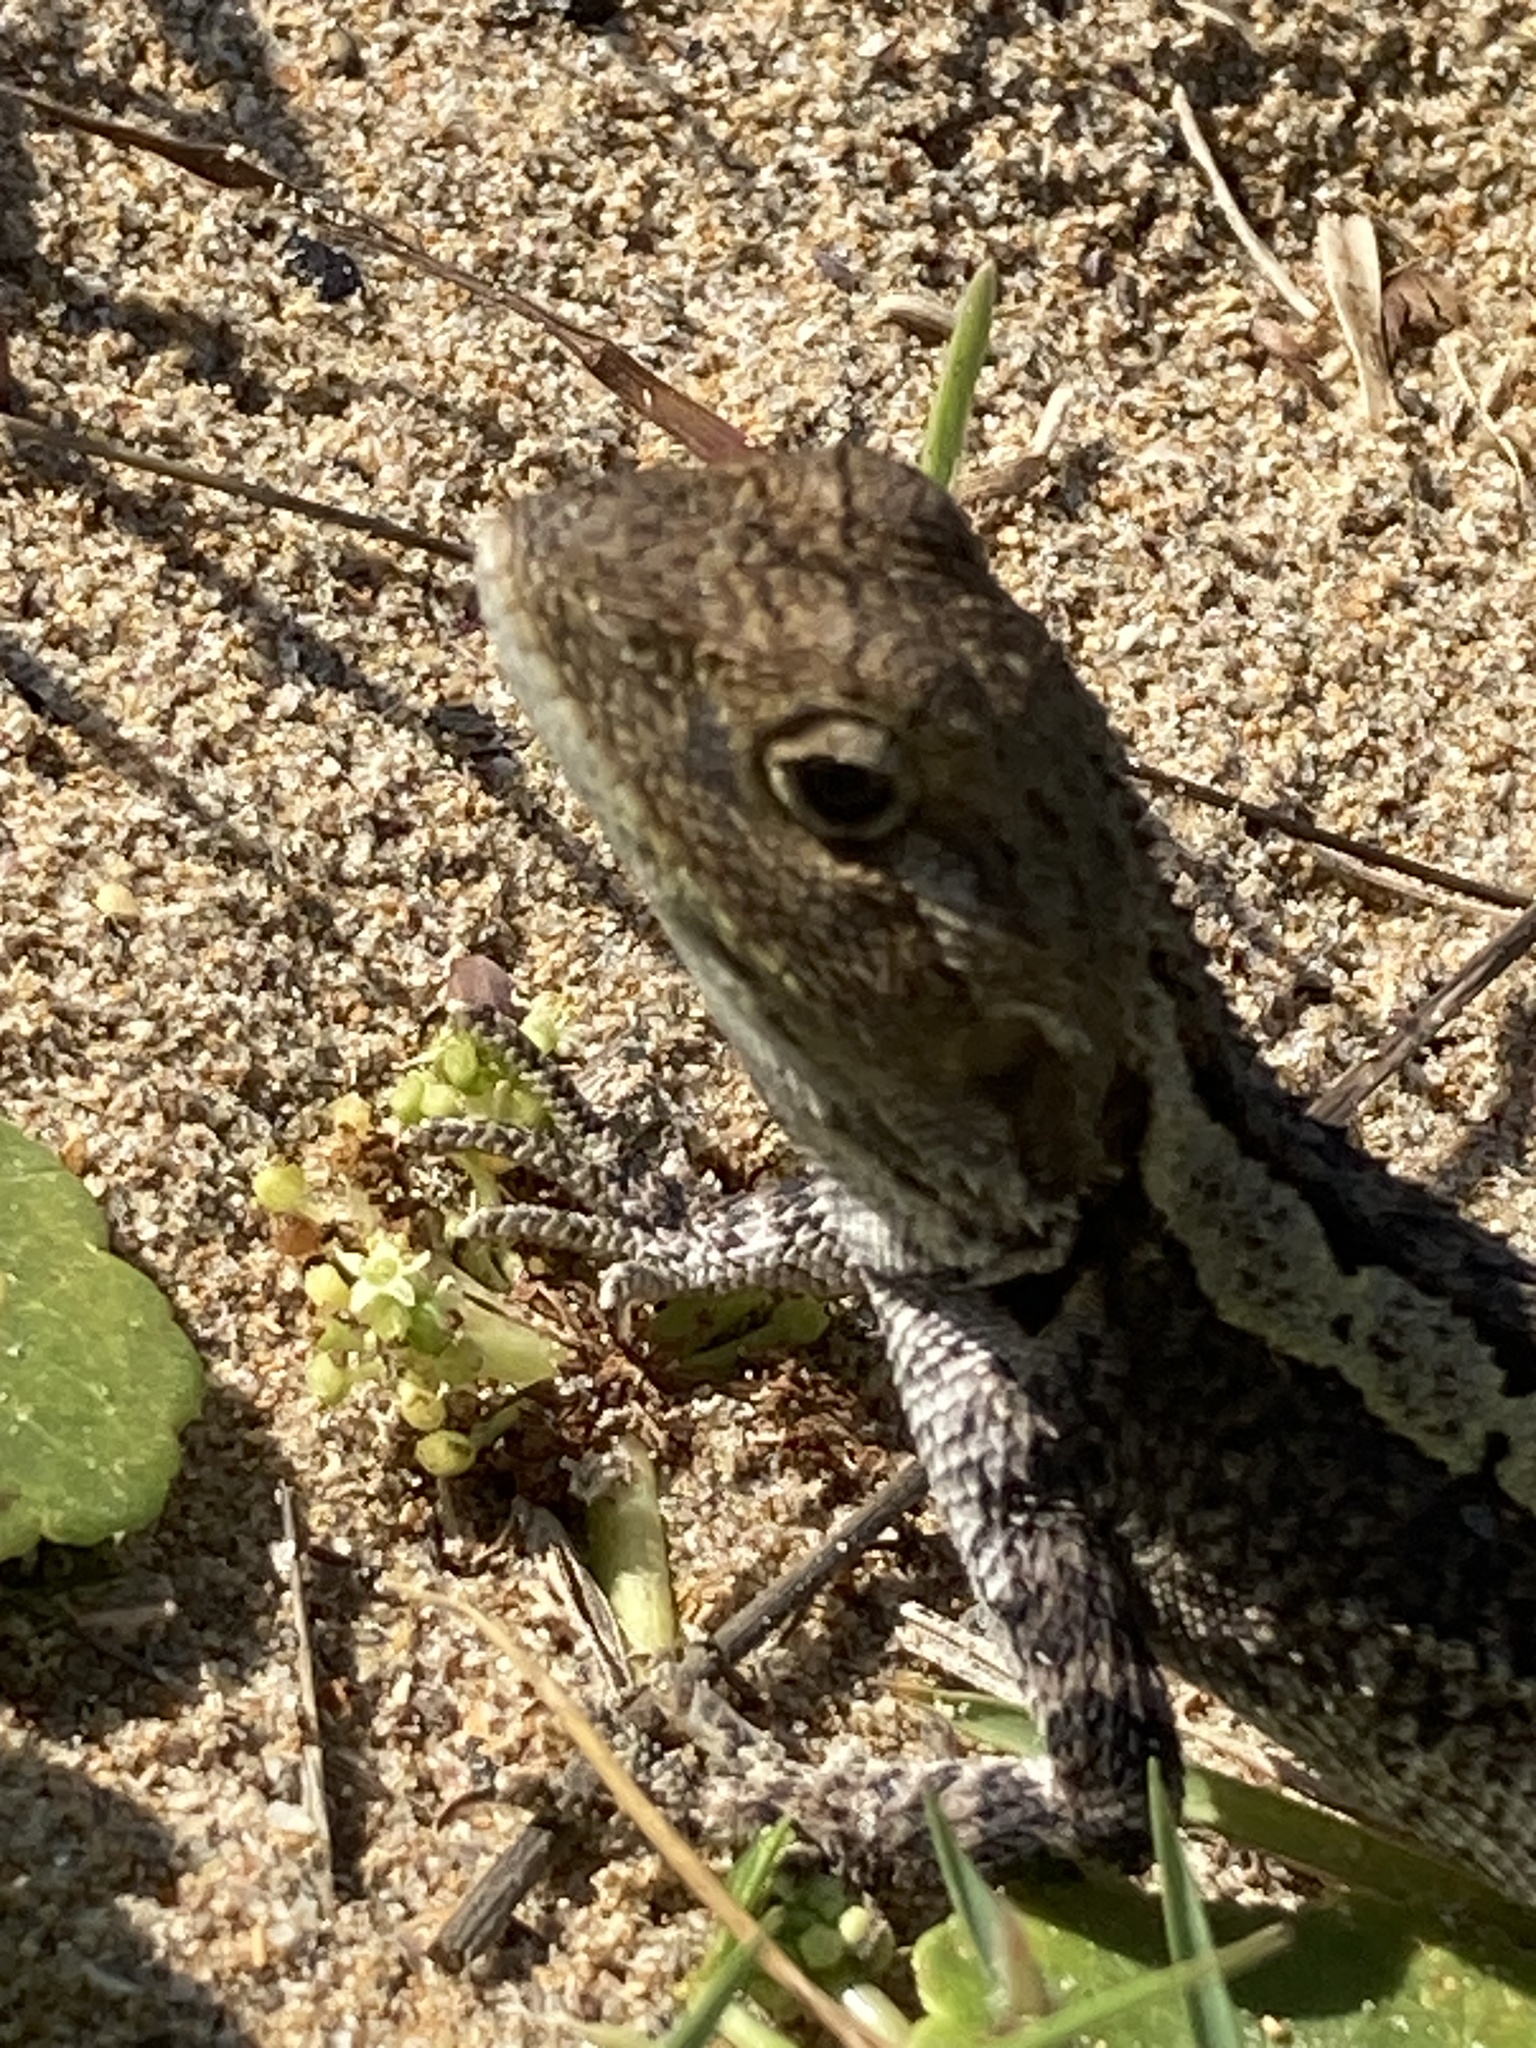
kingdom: Animalia
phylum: Chordata
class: Squamata
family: Agamidae
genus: Amphibolurus
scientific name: Amphibolurus muricatus
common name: Jacky lizard
